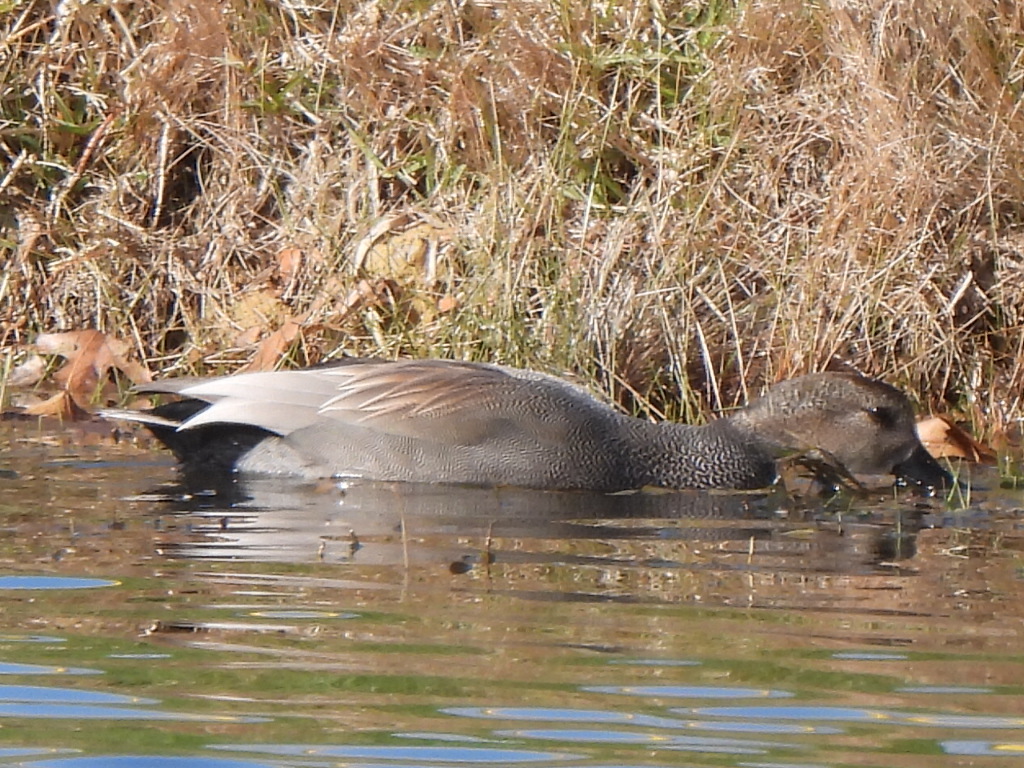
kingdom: Animalia
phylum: Chordata
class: Aves
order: Anseriformes
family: Anatidae
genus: Mareca
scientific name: Mareca strepera
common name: Gadwall
